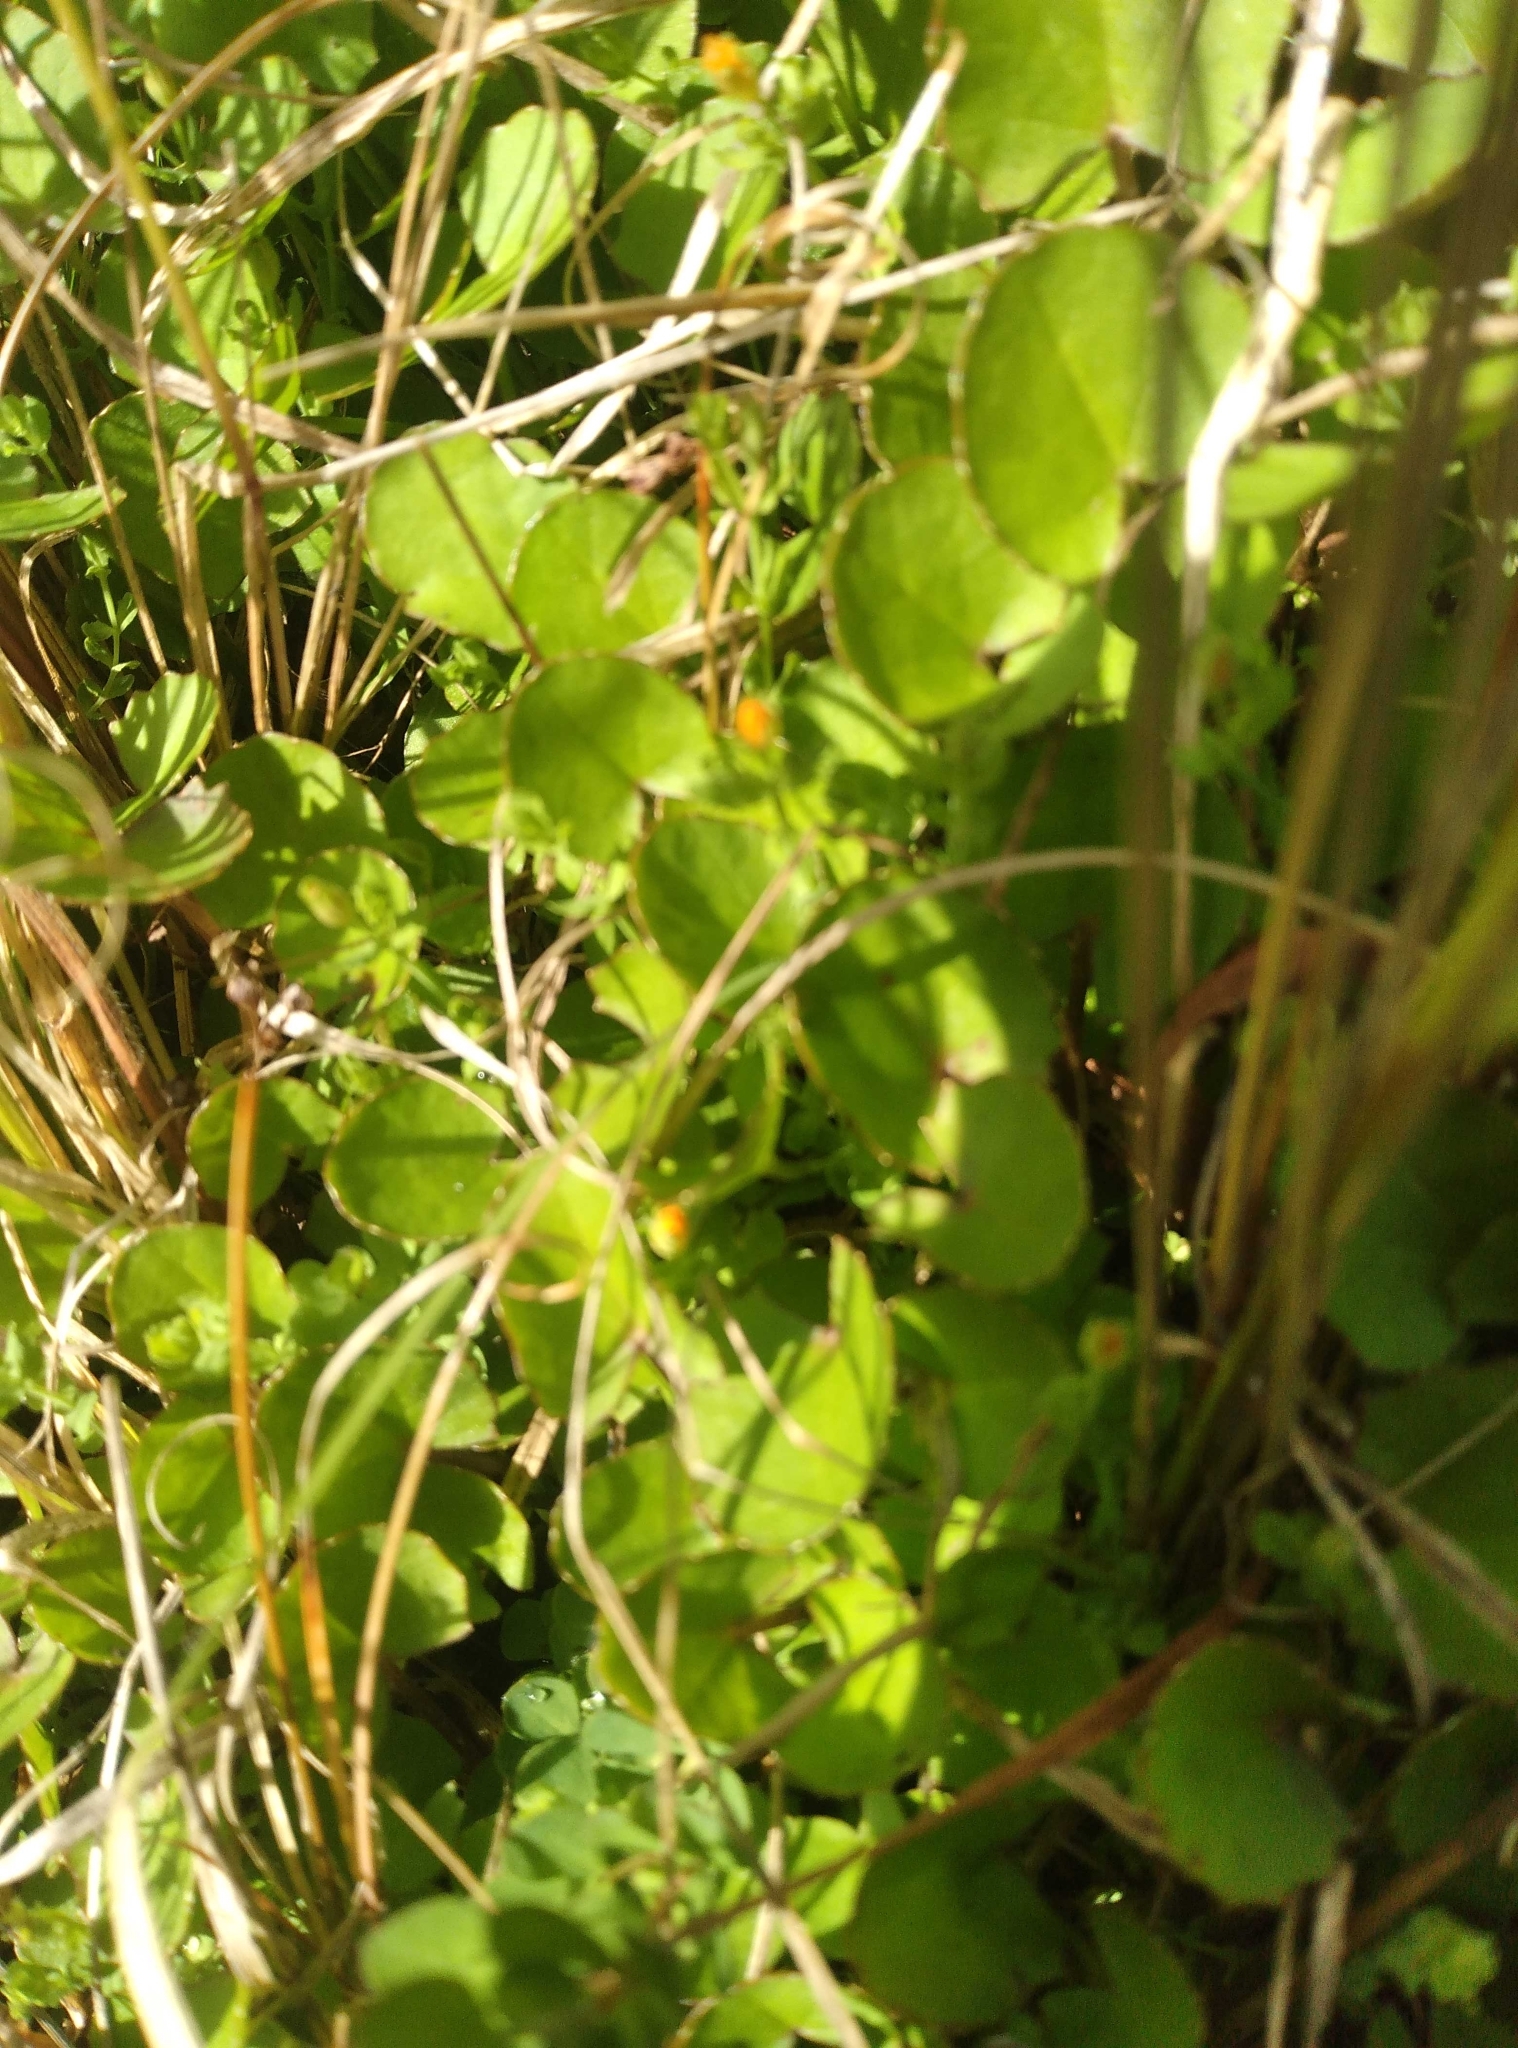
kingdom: Plantae
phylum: Tracheophyta
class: Magnoliopsida
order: Apiales
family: Apiaceae
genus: Centella
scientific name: Centella uniflora
